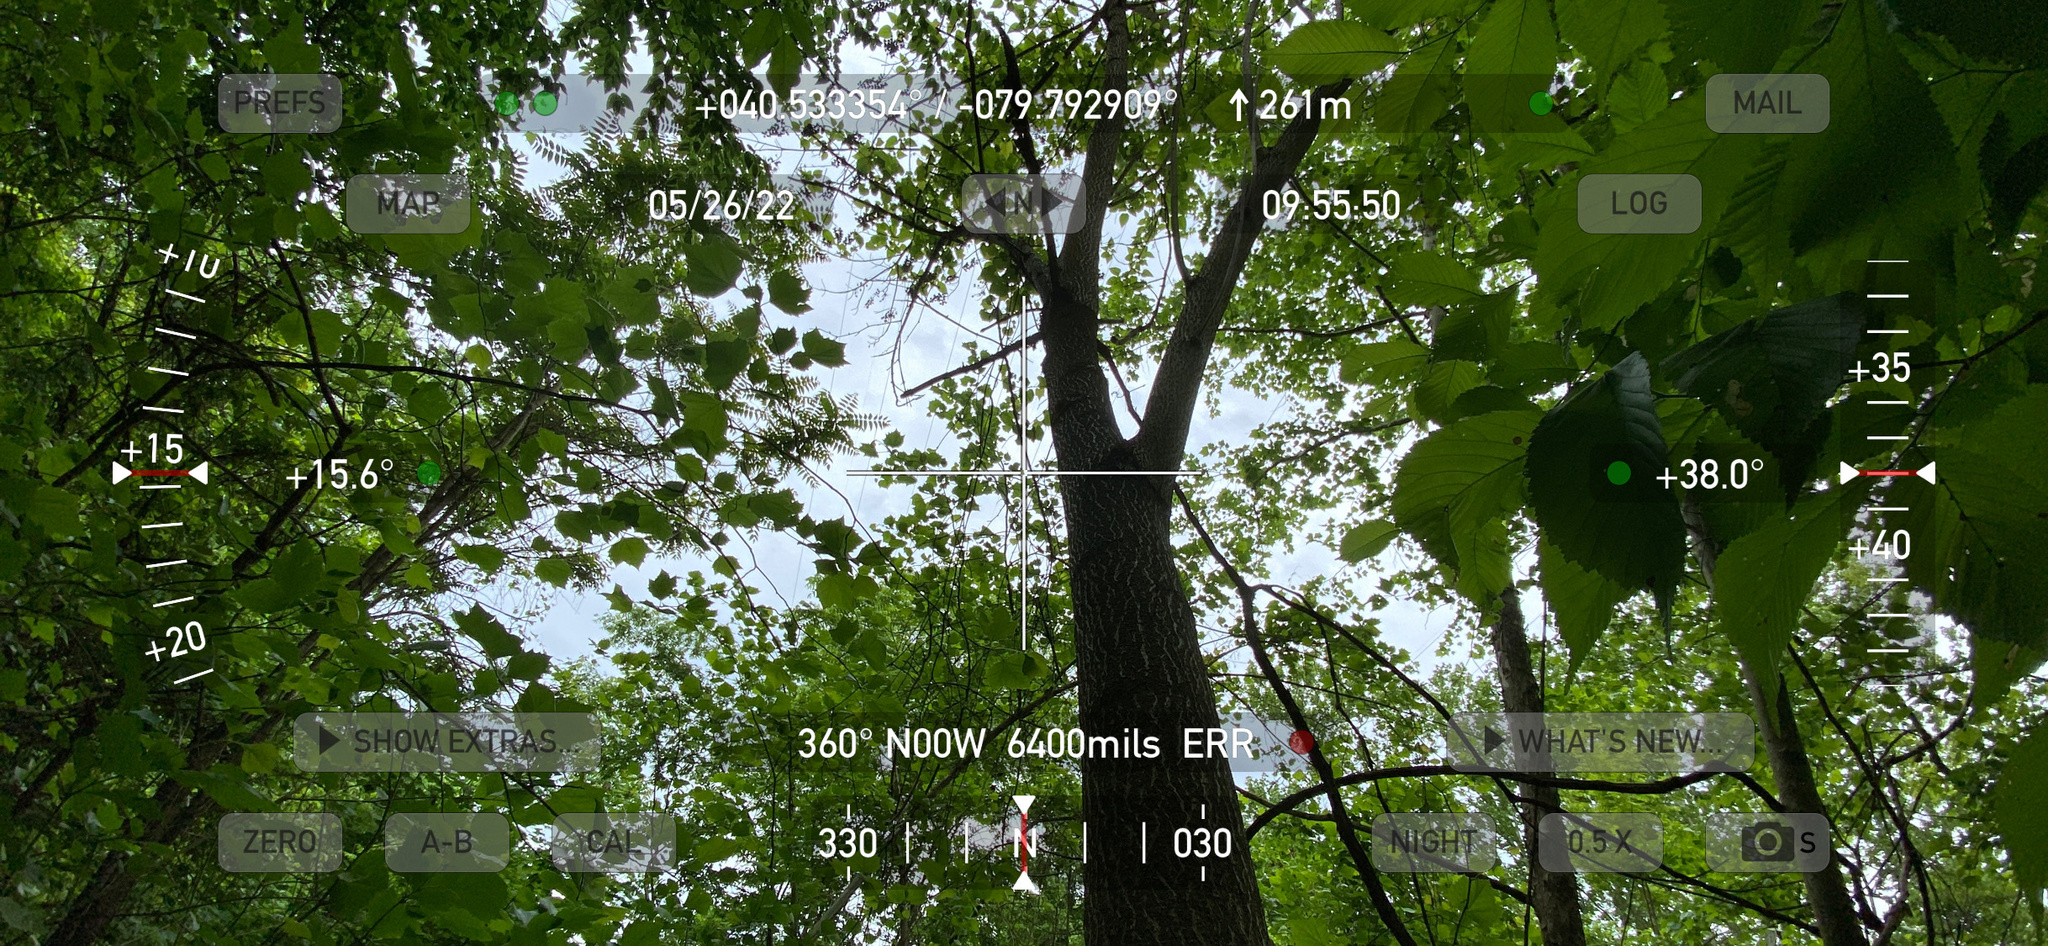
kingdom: Plantae
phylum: Tracheophyta
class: Magnoliopsida
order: Lamiales
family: Paulowniaceae
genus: Paulownia
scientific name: Paulownia tomentosa
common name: Foxglove-tree
